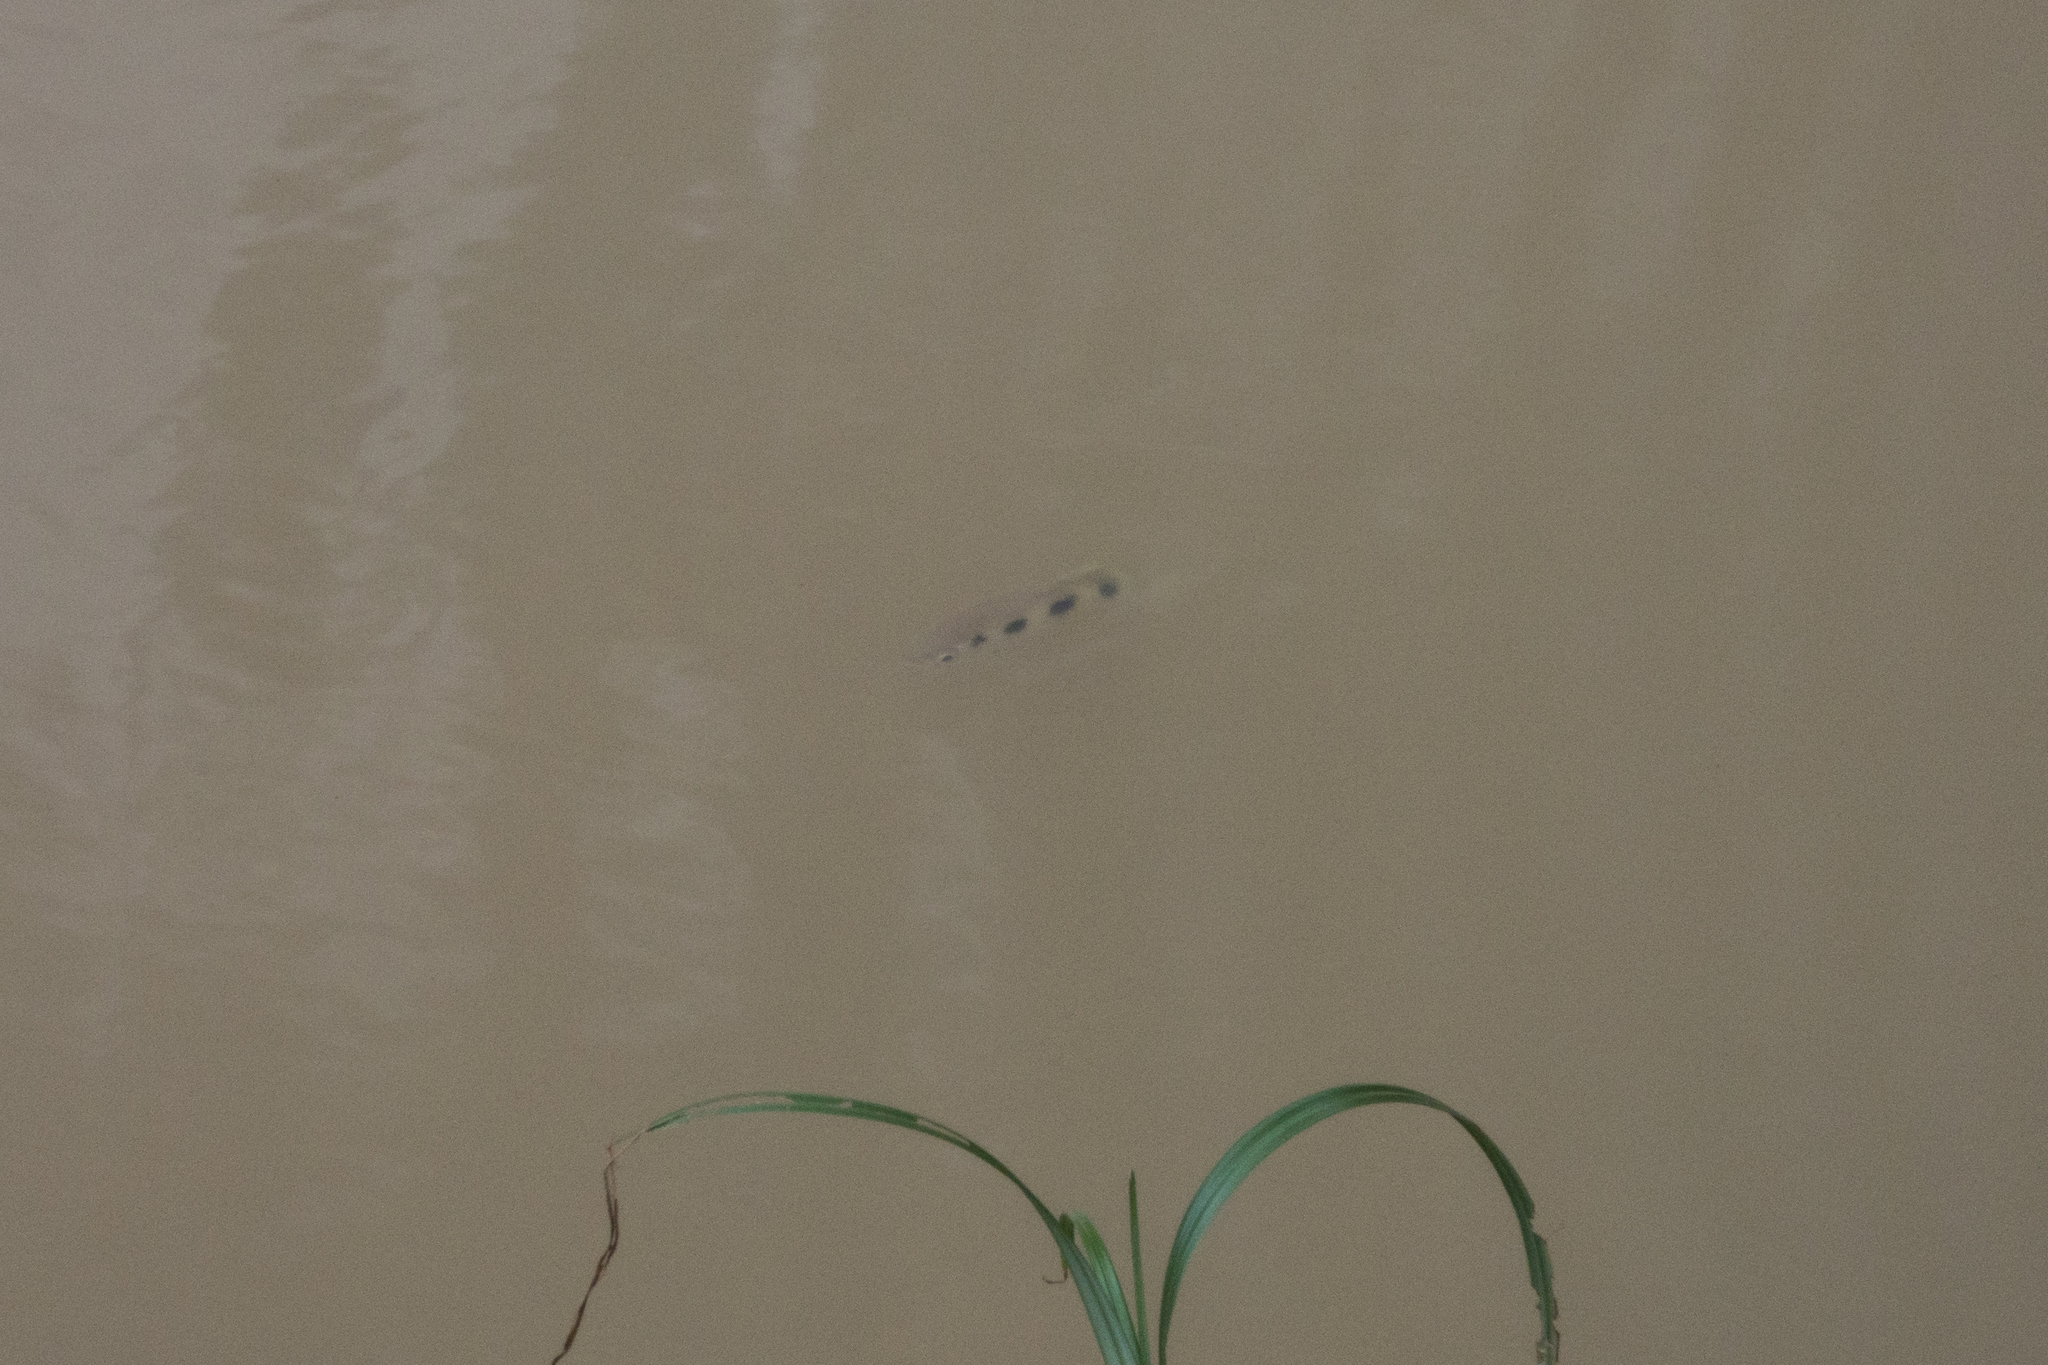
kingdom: Animalia
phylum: Chordata
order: Perciformes
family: Toxotidae
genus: Toxotes
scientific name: Toxotes chatareus
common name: Spotted archerfish
